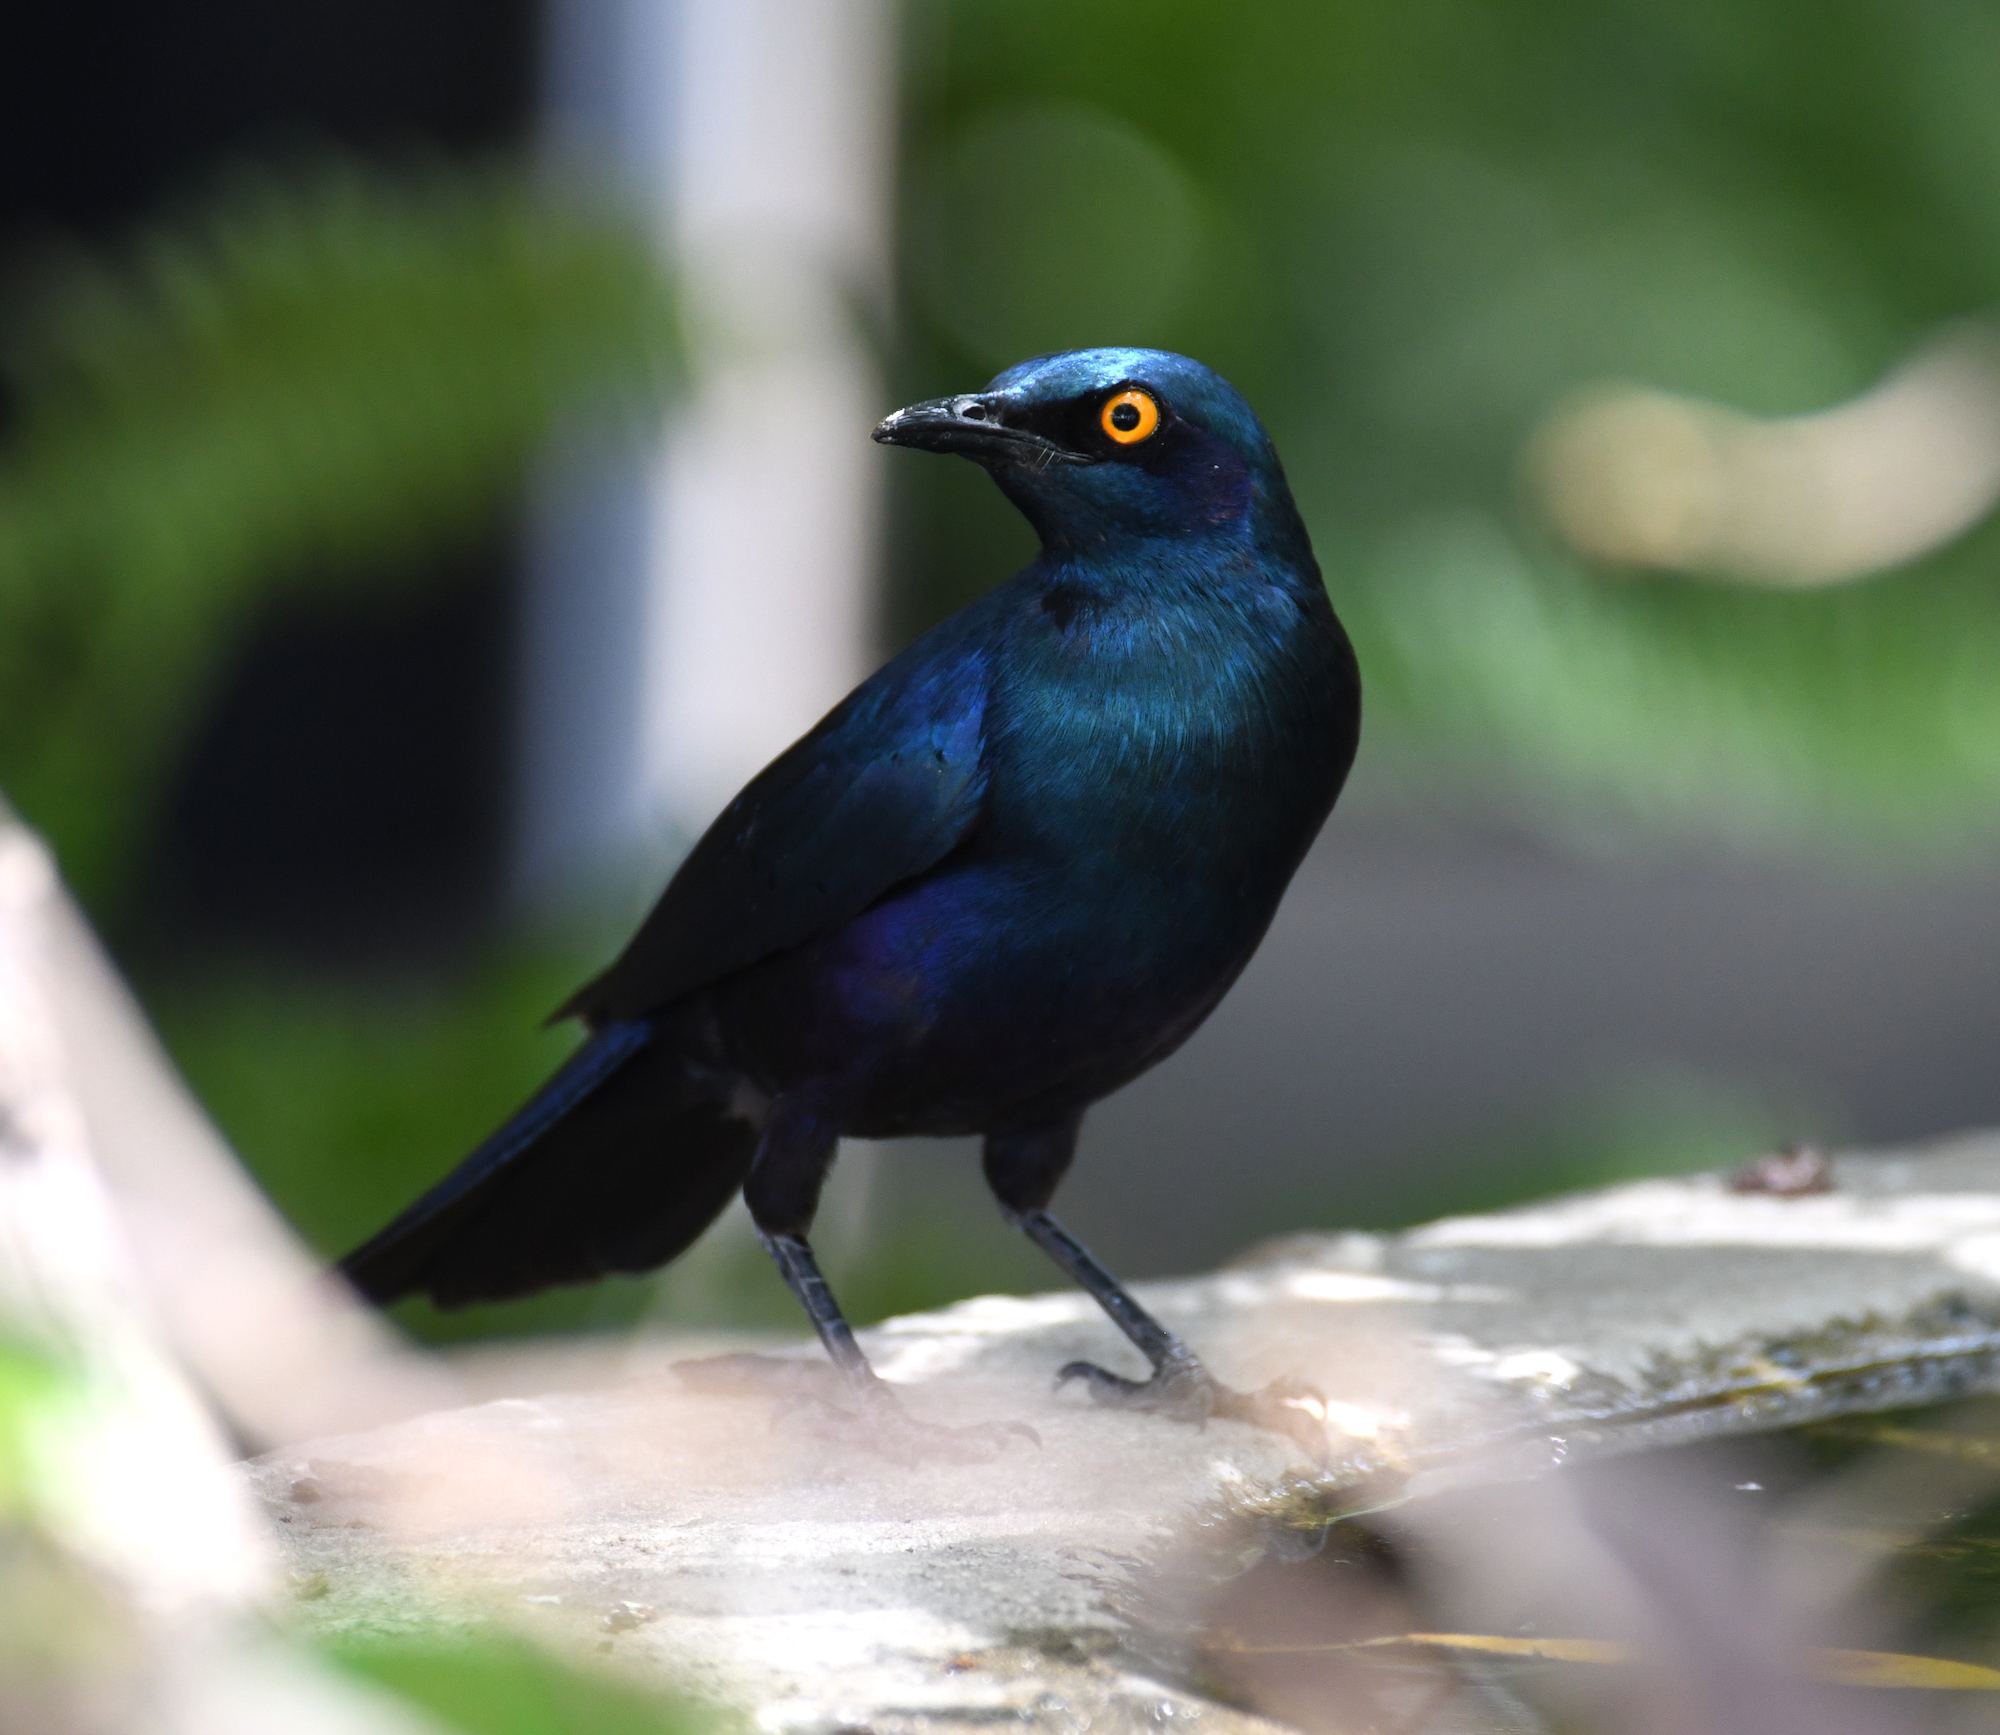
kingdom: Animalia
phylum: Chordata
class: Aves
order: Passeriformes
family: Sturnidae
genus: Lamprotornis
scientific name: Lamprotornis chalybaeus
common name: Greater blue-eared starling
